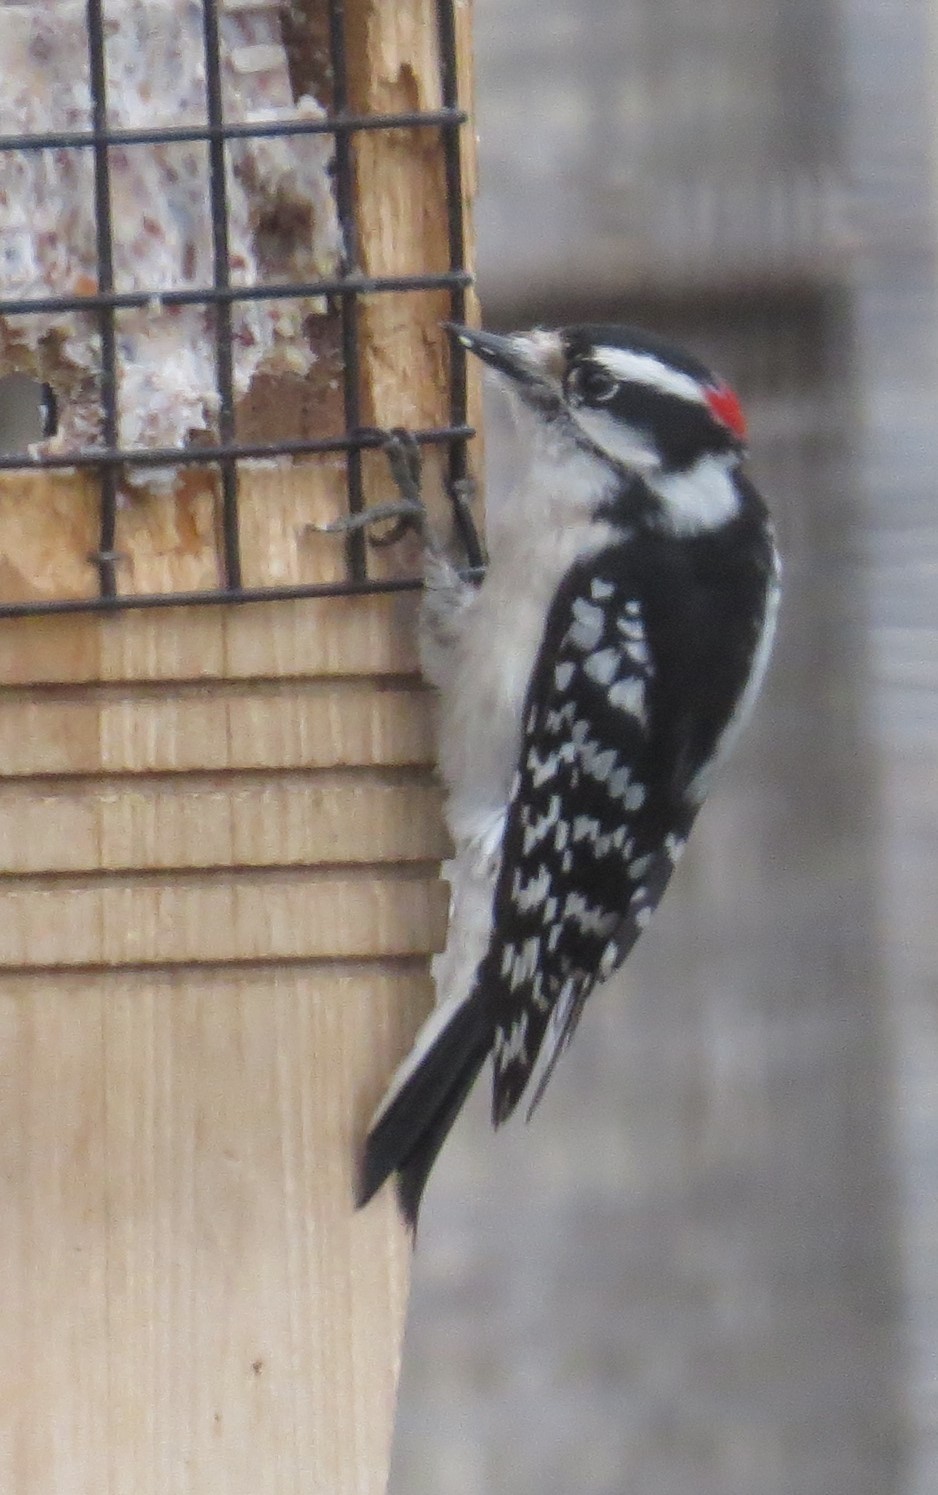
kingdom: Animalia
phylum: Chordata
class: Aves
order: Piciformes
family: Picidae
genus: Dryobates
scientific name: Dryobates pubescens
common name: Downy woodpecker
